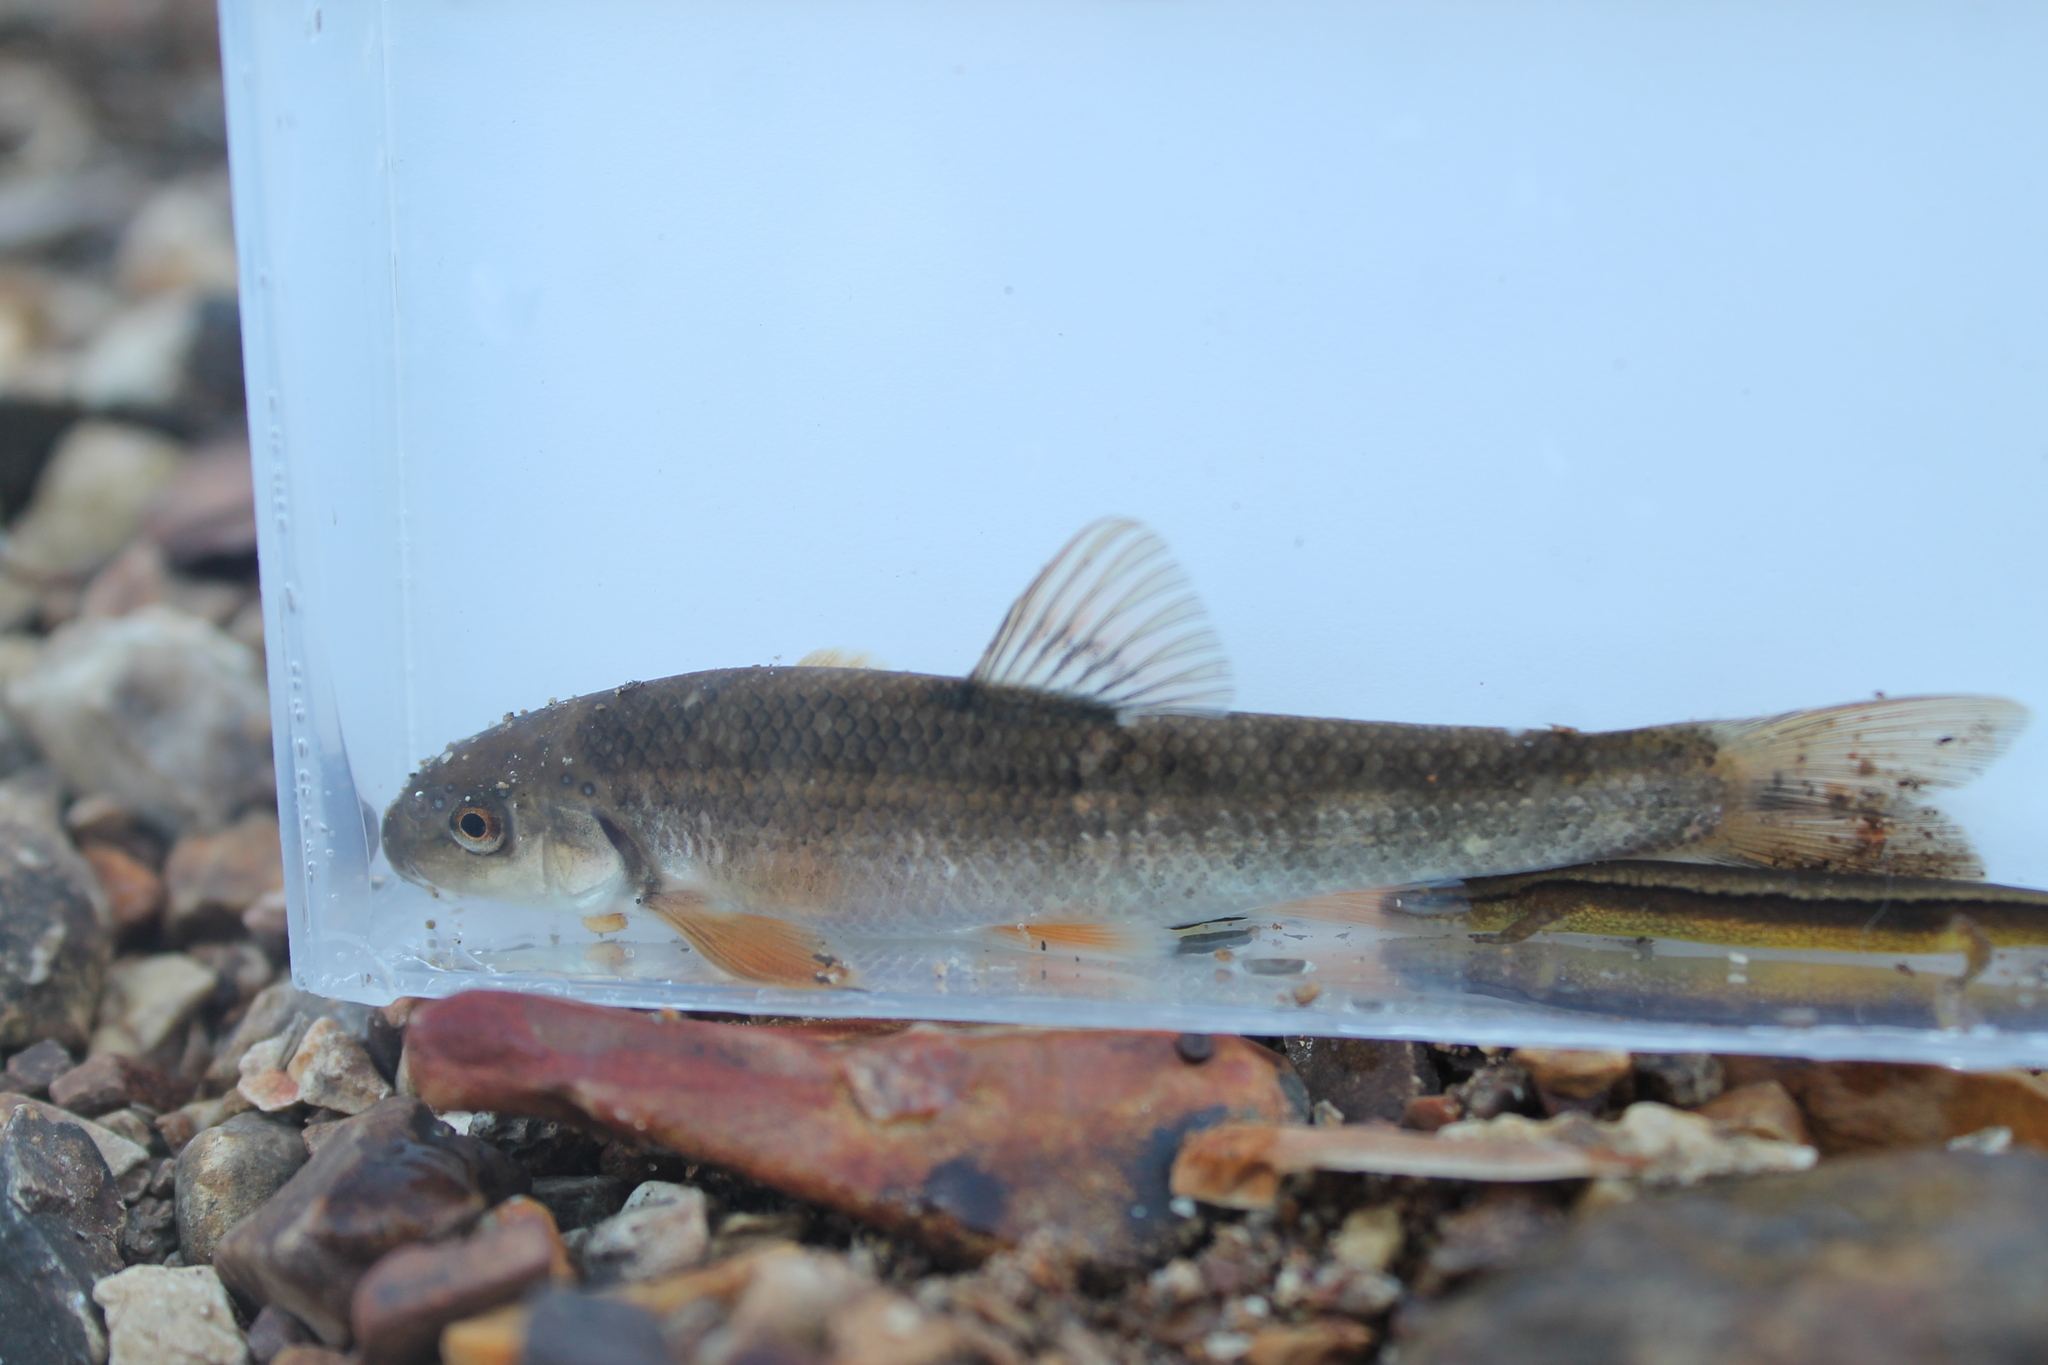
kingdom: Animalia
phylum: Chordata
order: Cypriniformes
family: Cyprinidae
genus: Campostoma
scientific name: Campostoma oligolepis
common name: Largescale stoneroller
